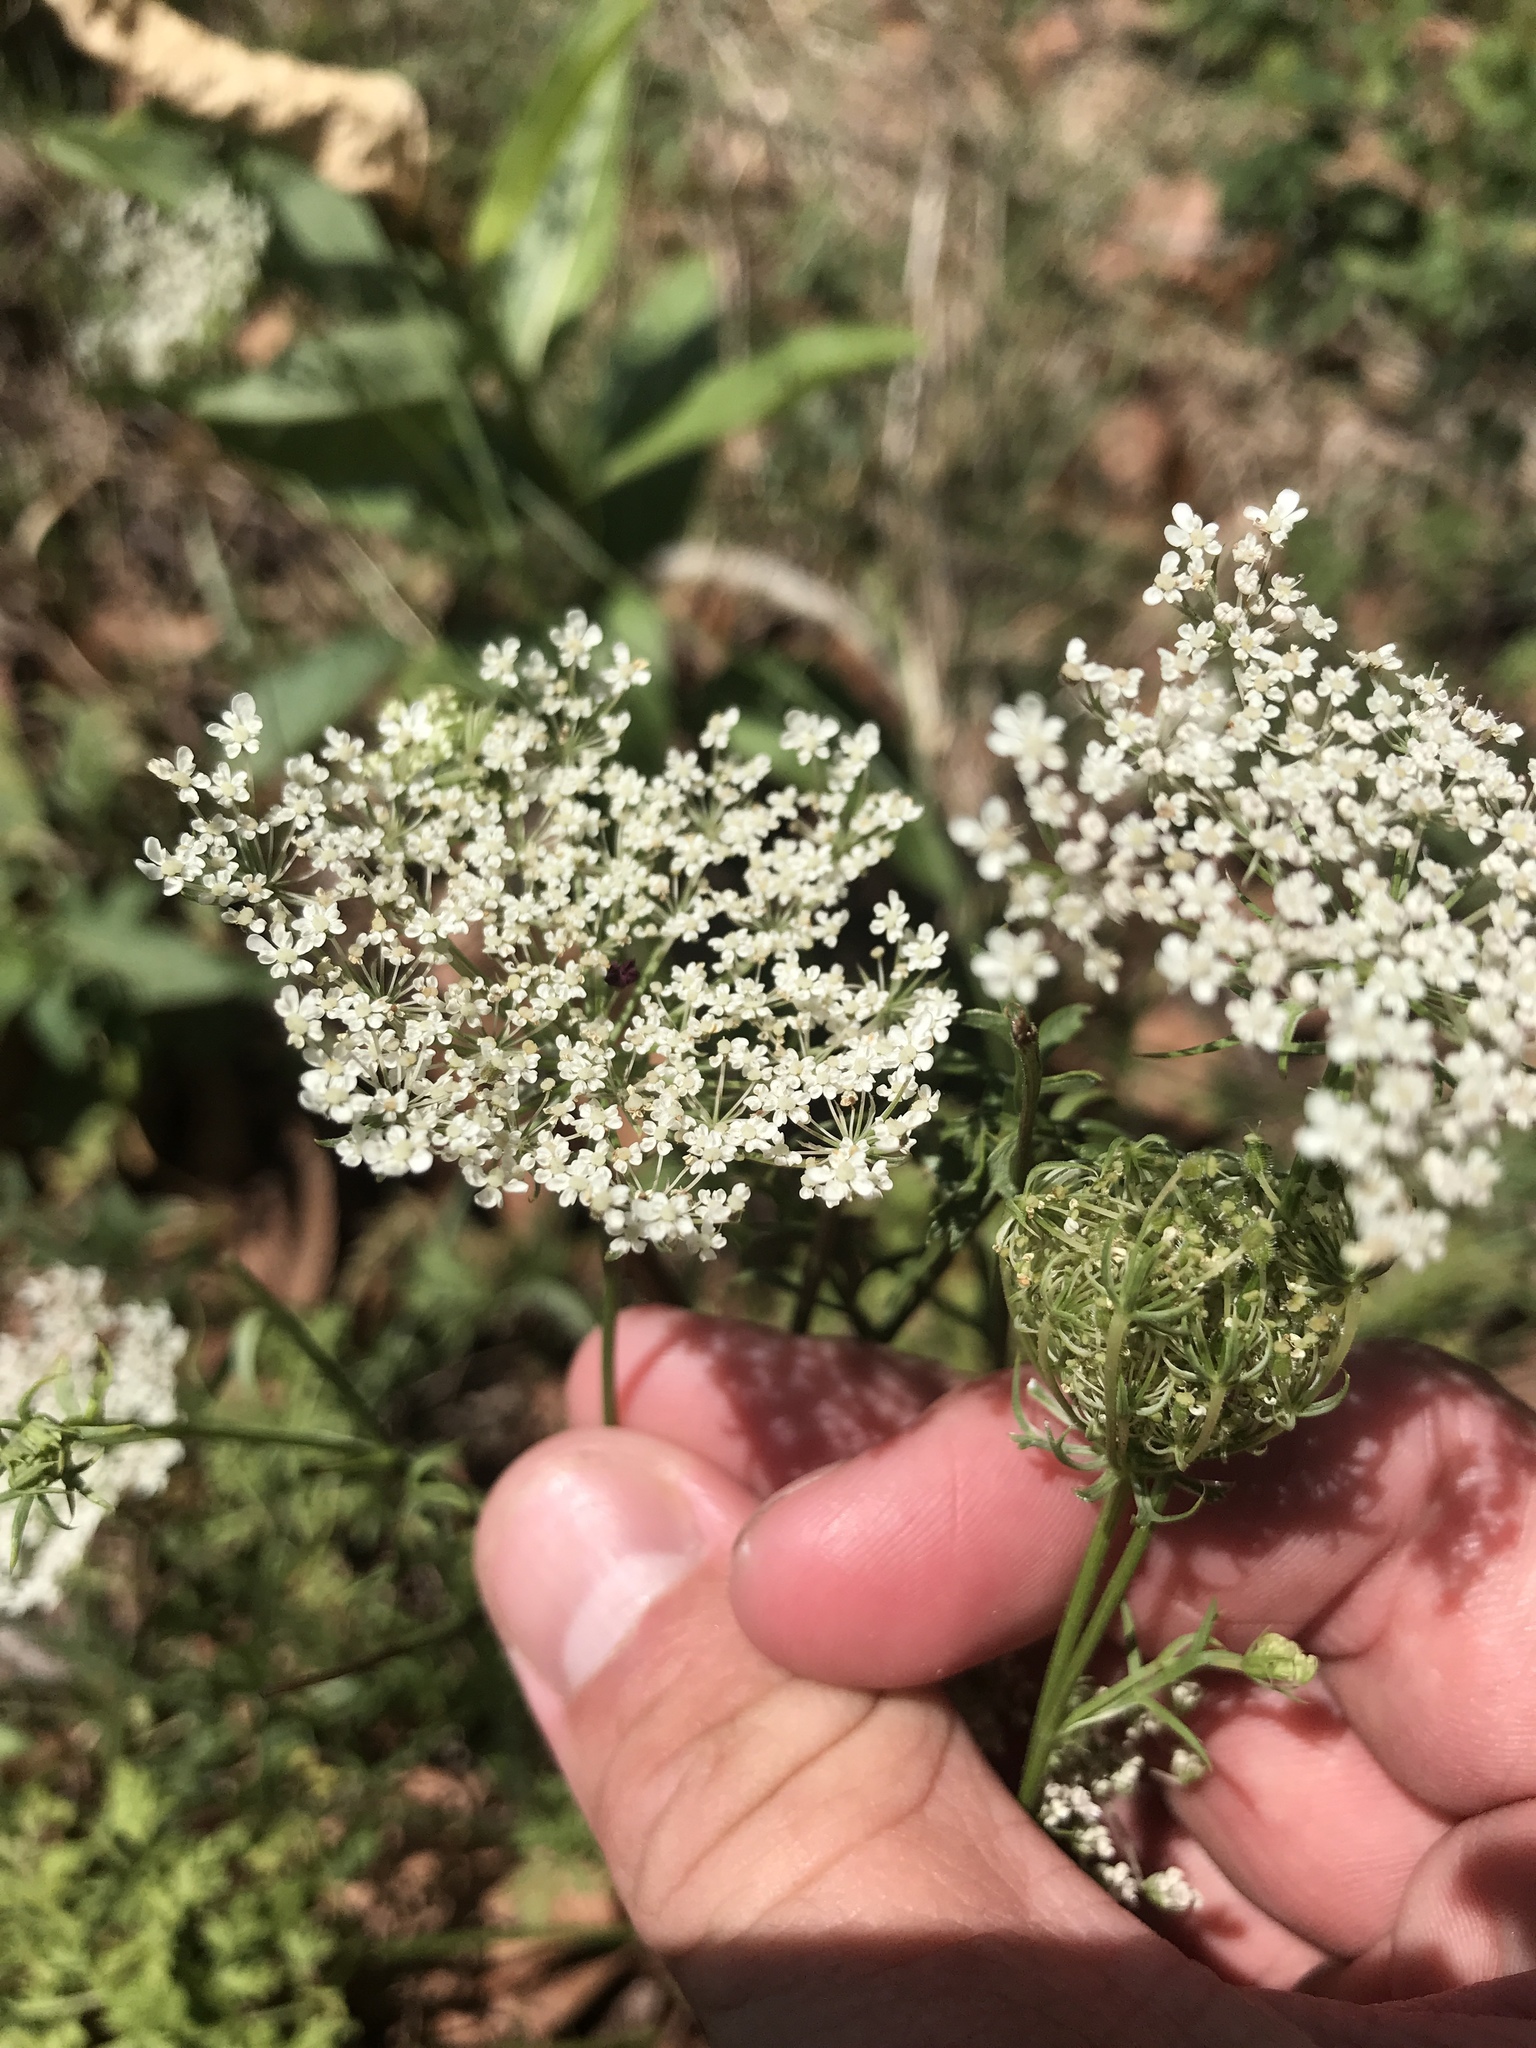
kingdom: Plantae
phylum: Tracheophyta
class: Magnoliopsida
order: Apiales
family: Apiaceae
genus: Daucus
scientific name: Daucus carota
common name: Wild carrot
